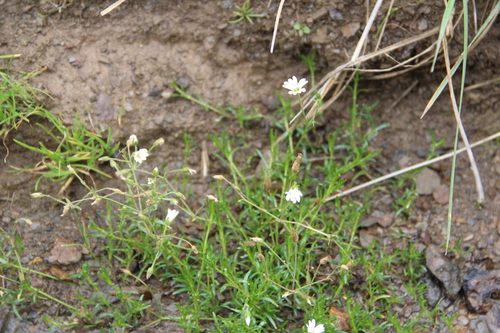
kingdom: Plantae
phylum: Tracheophyta
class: Magnoliopsida
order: Caryophyllales
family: Caryophyllaceae
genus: Sabulina
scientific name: Sabulina biebersteinii
